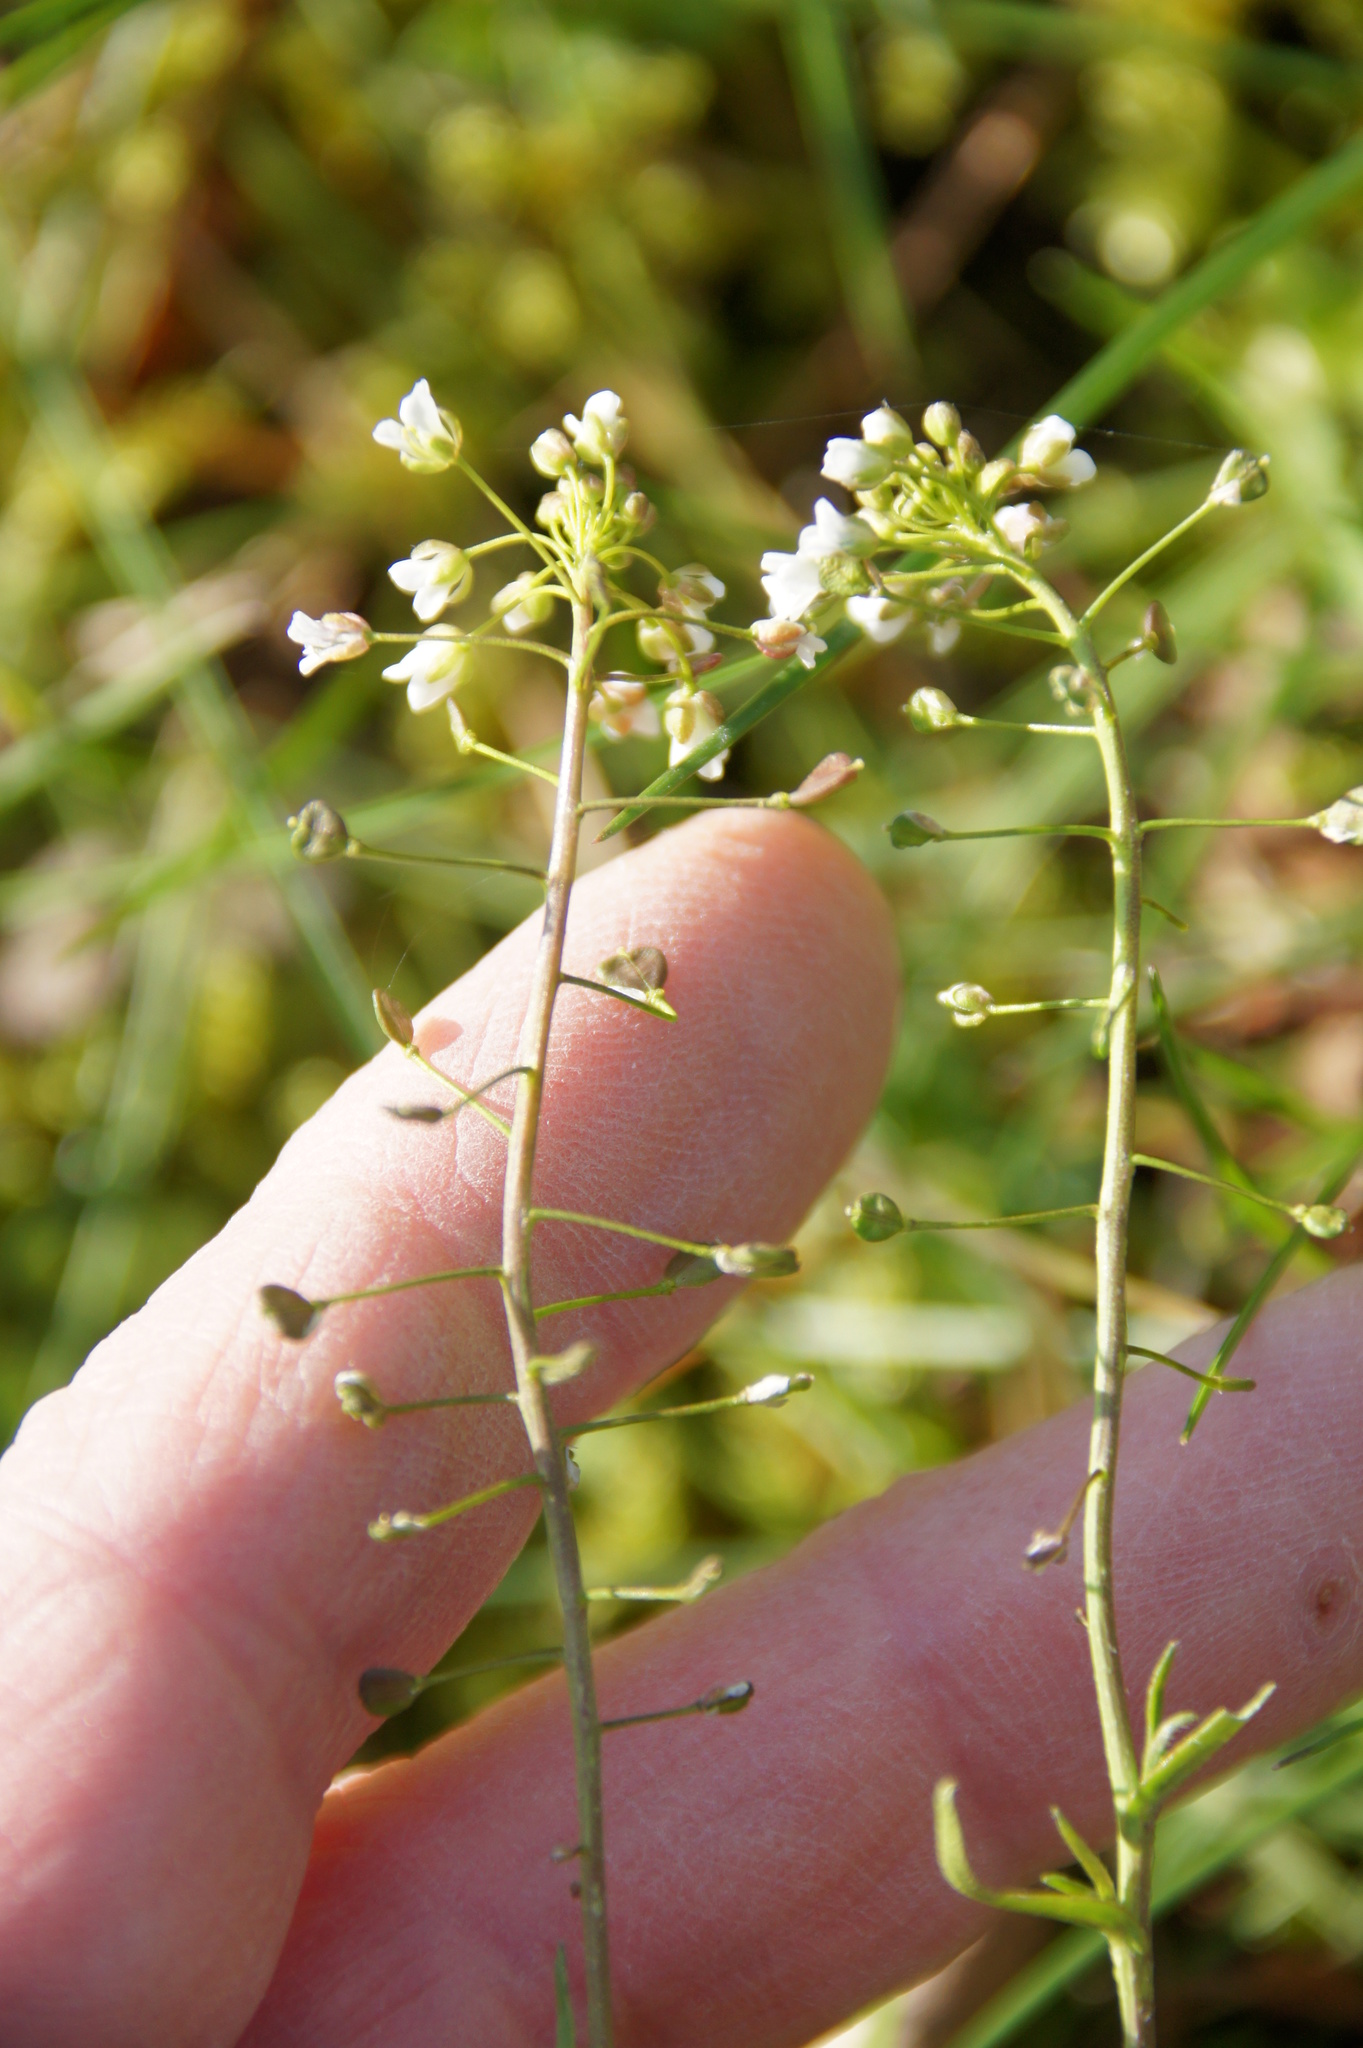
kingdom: Plantae
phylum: Tracheophyta
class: Magnoliopsida
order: Brassicales
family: Brassicaceae
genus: Capsella
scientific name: Capsella bursa-pastoris
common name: Shepherd's purse
